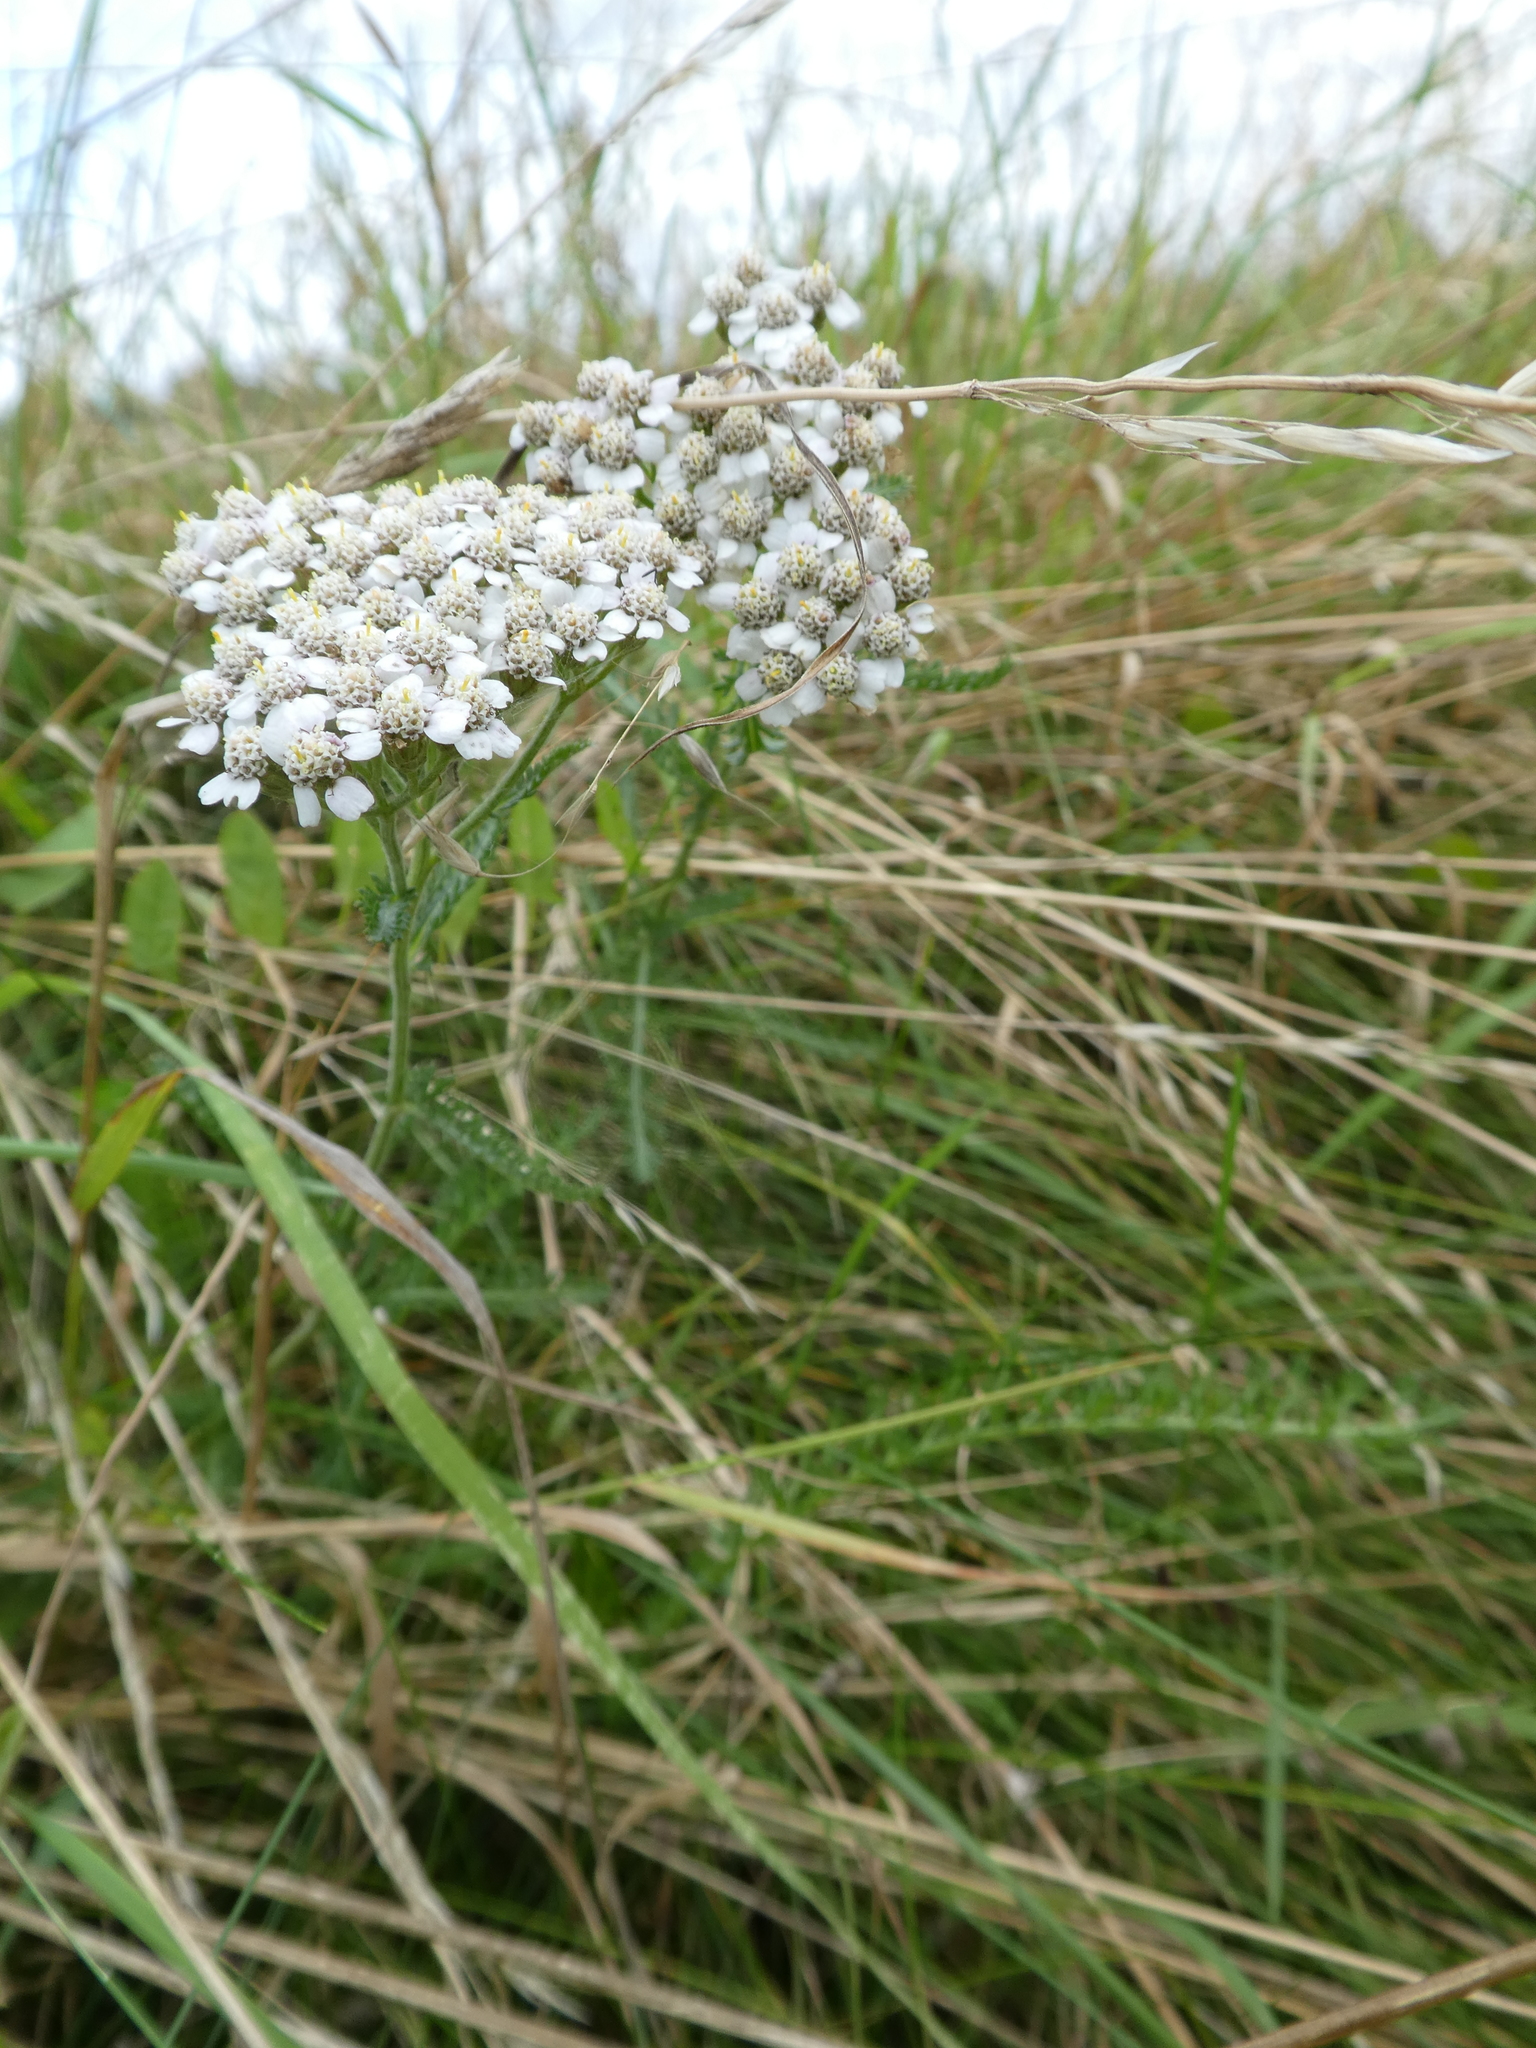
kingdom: Plantae
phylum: Tracheophyta
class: Magnoliopsida
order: Asterales
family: Asteraceae
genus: Achillea
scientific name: Achillea millefolium
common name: Yarrow
